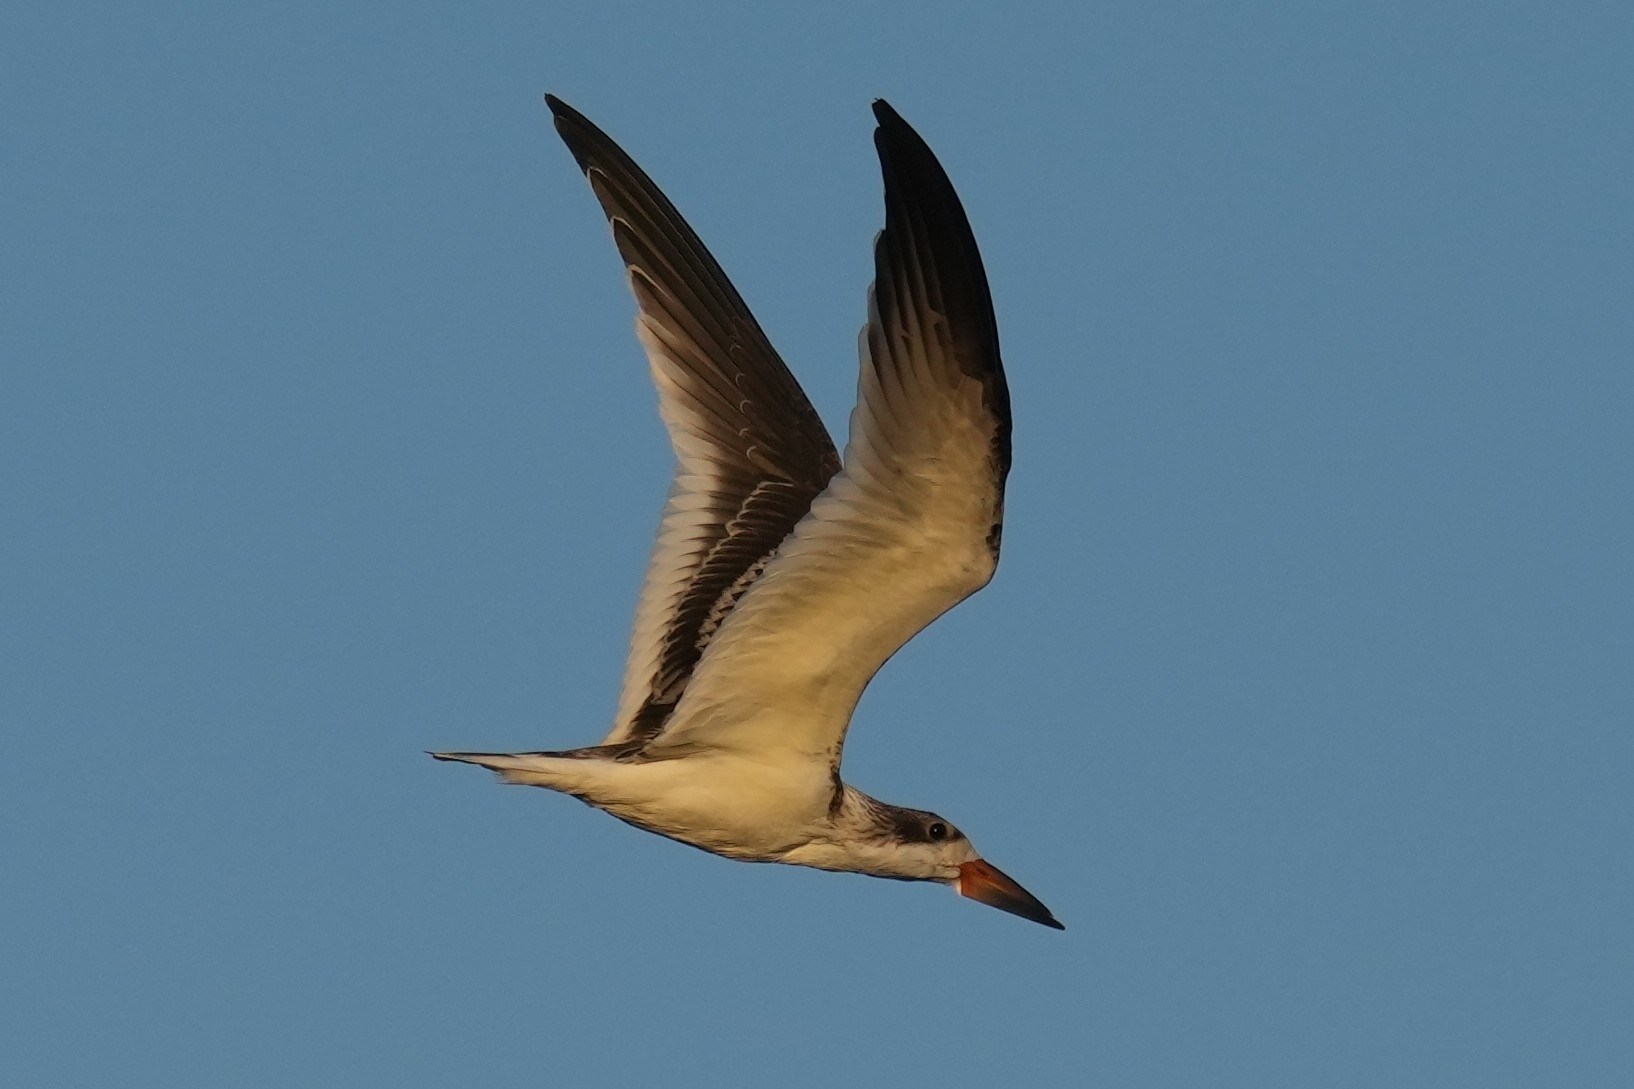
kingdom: Animalia
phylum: Chordata
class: Aves
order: Charadriiformes
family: Laridae
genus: Rynchops
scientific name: Rynchops niger
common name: Black skimmer
